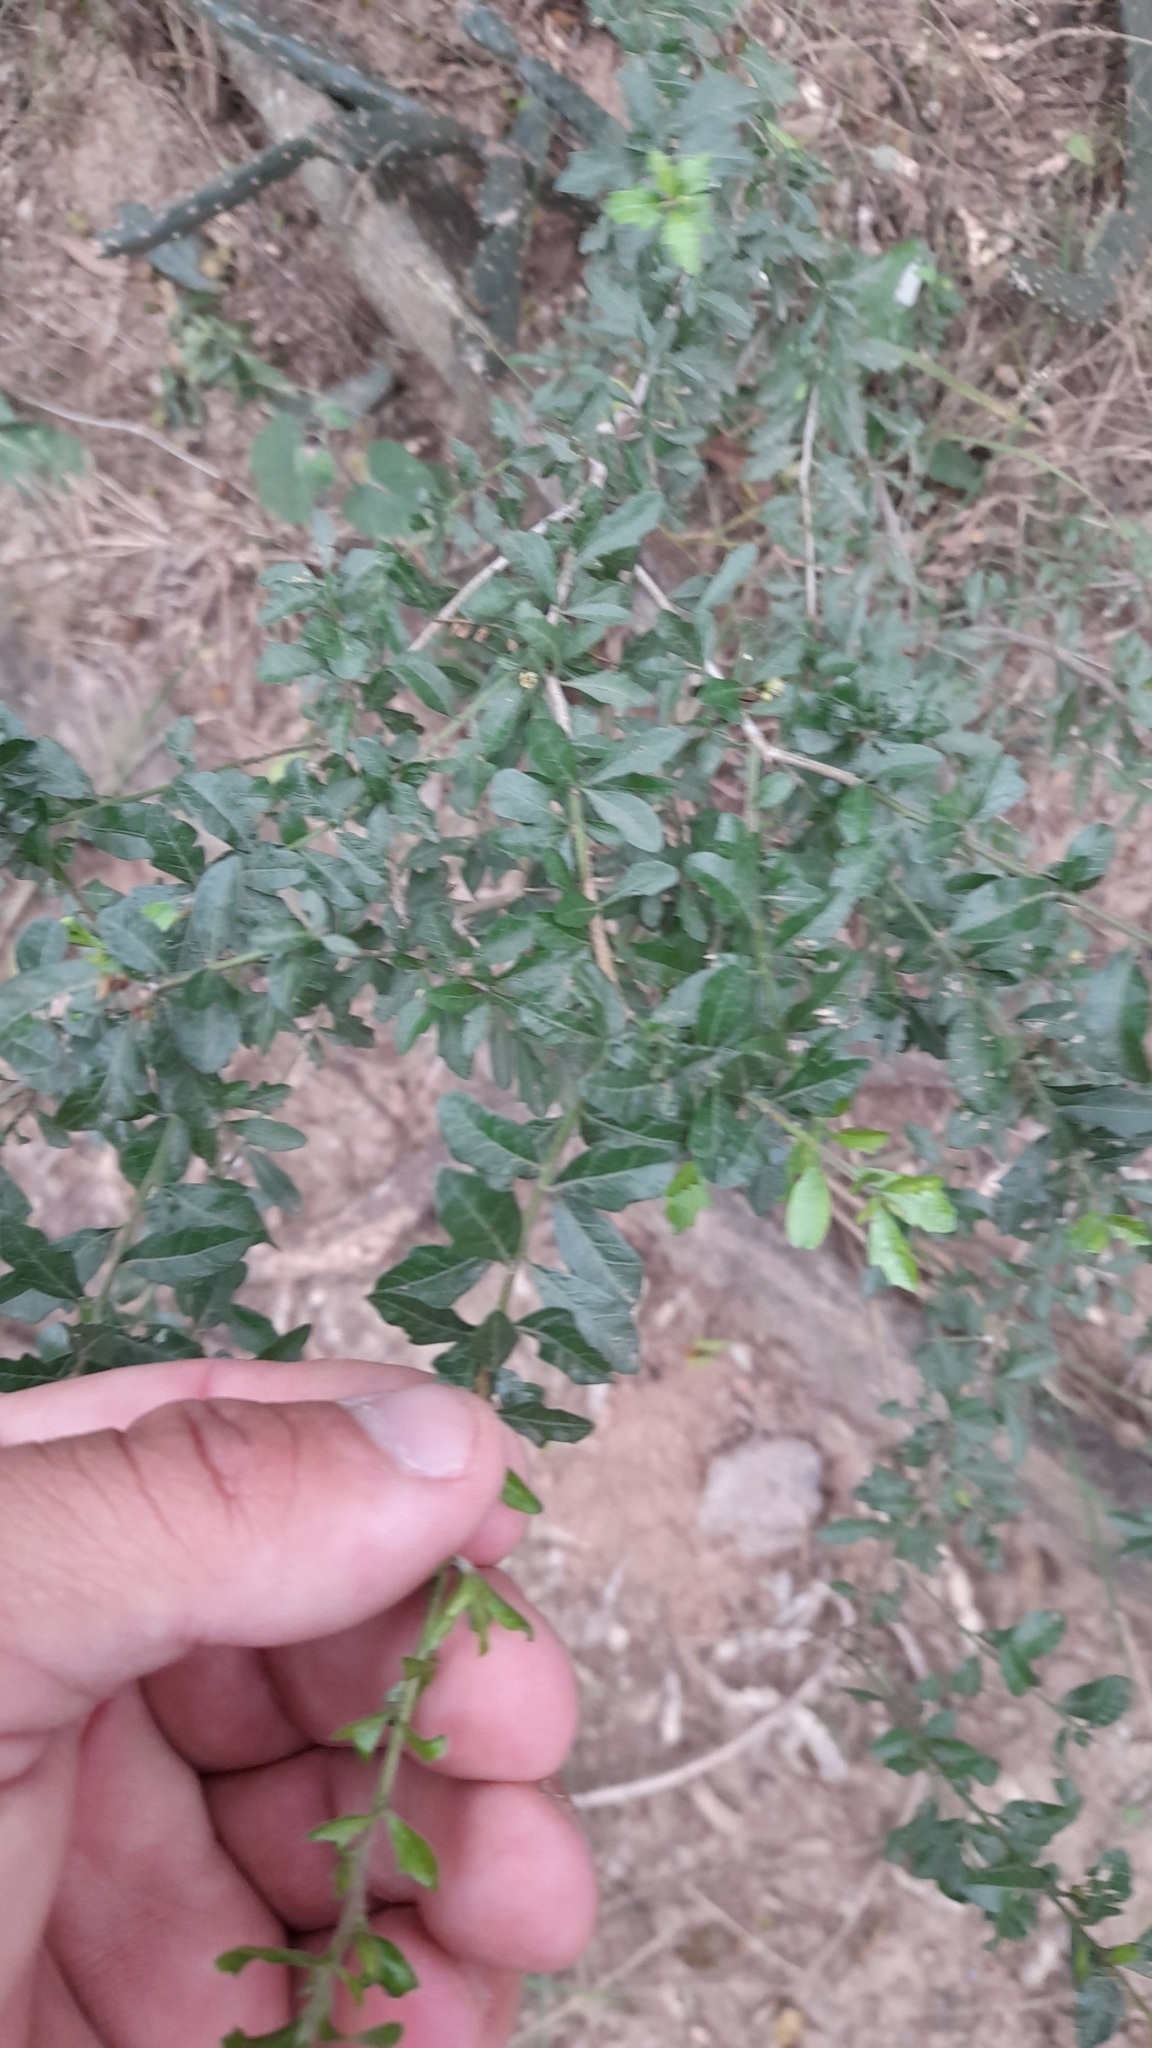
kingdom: Plantae
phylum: Tracheophyta
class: Magnoliopsida
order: Sapindales
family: Anacardiaceae
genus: Schinus
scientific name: Schinus fasciculata
